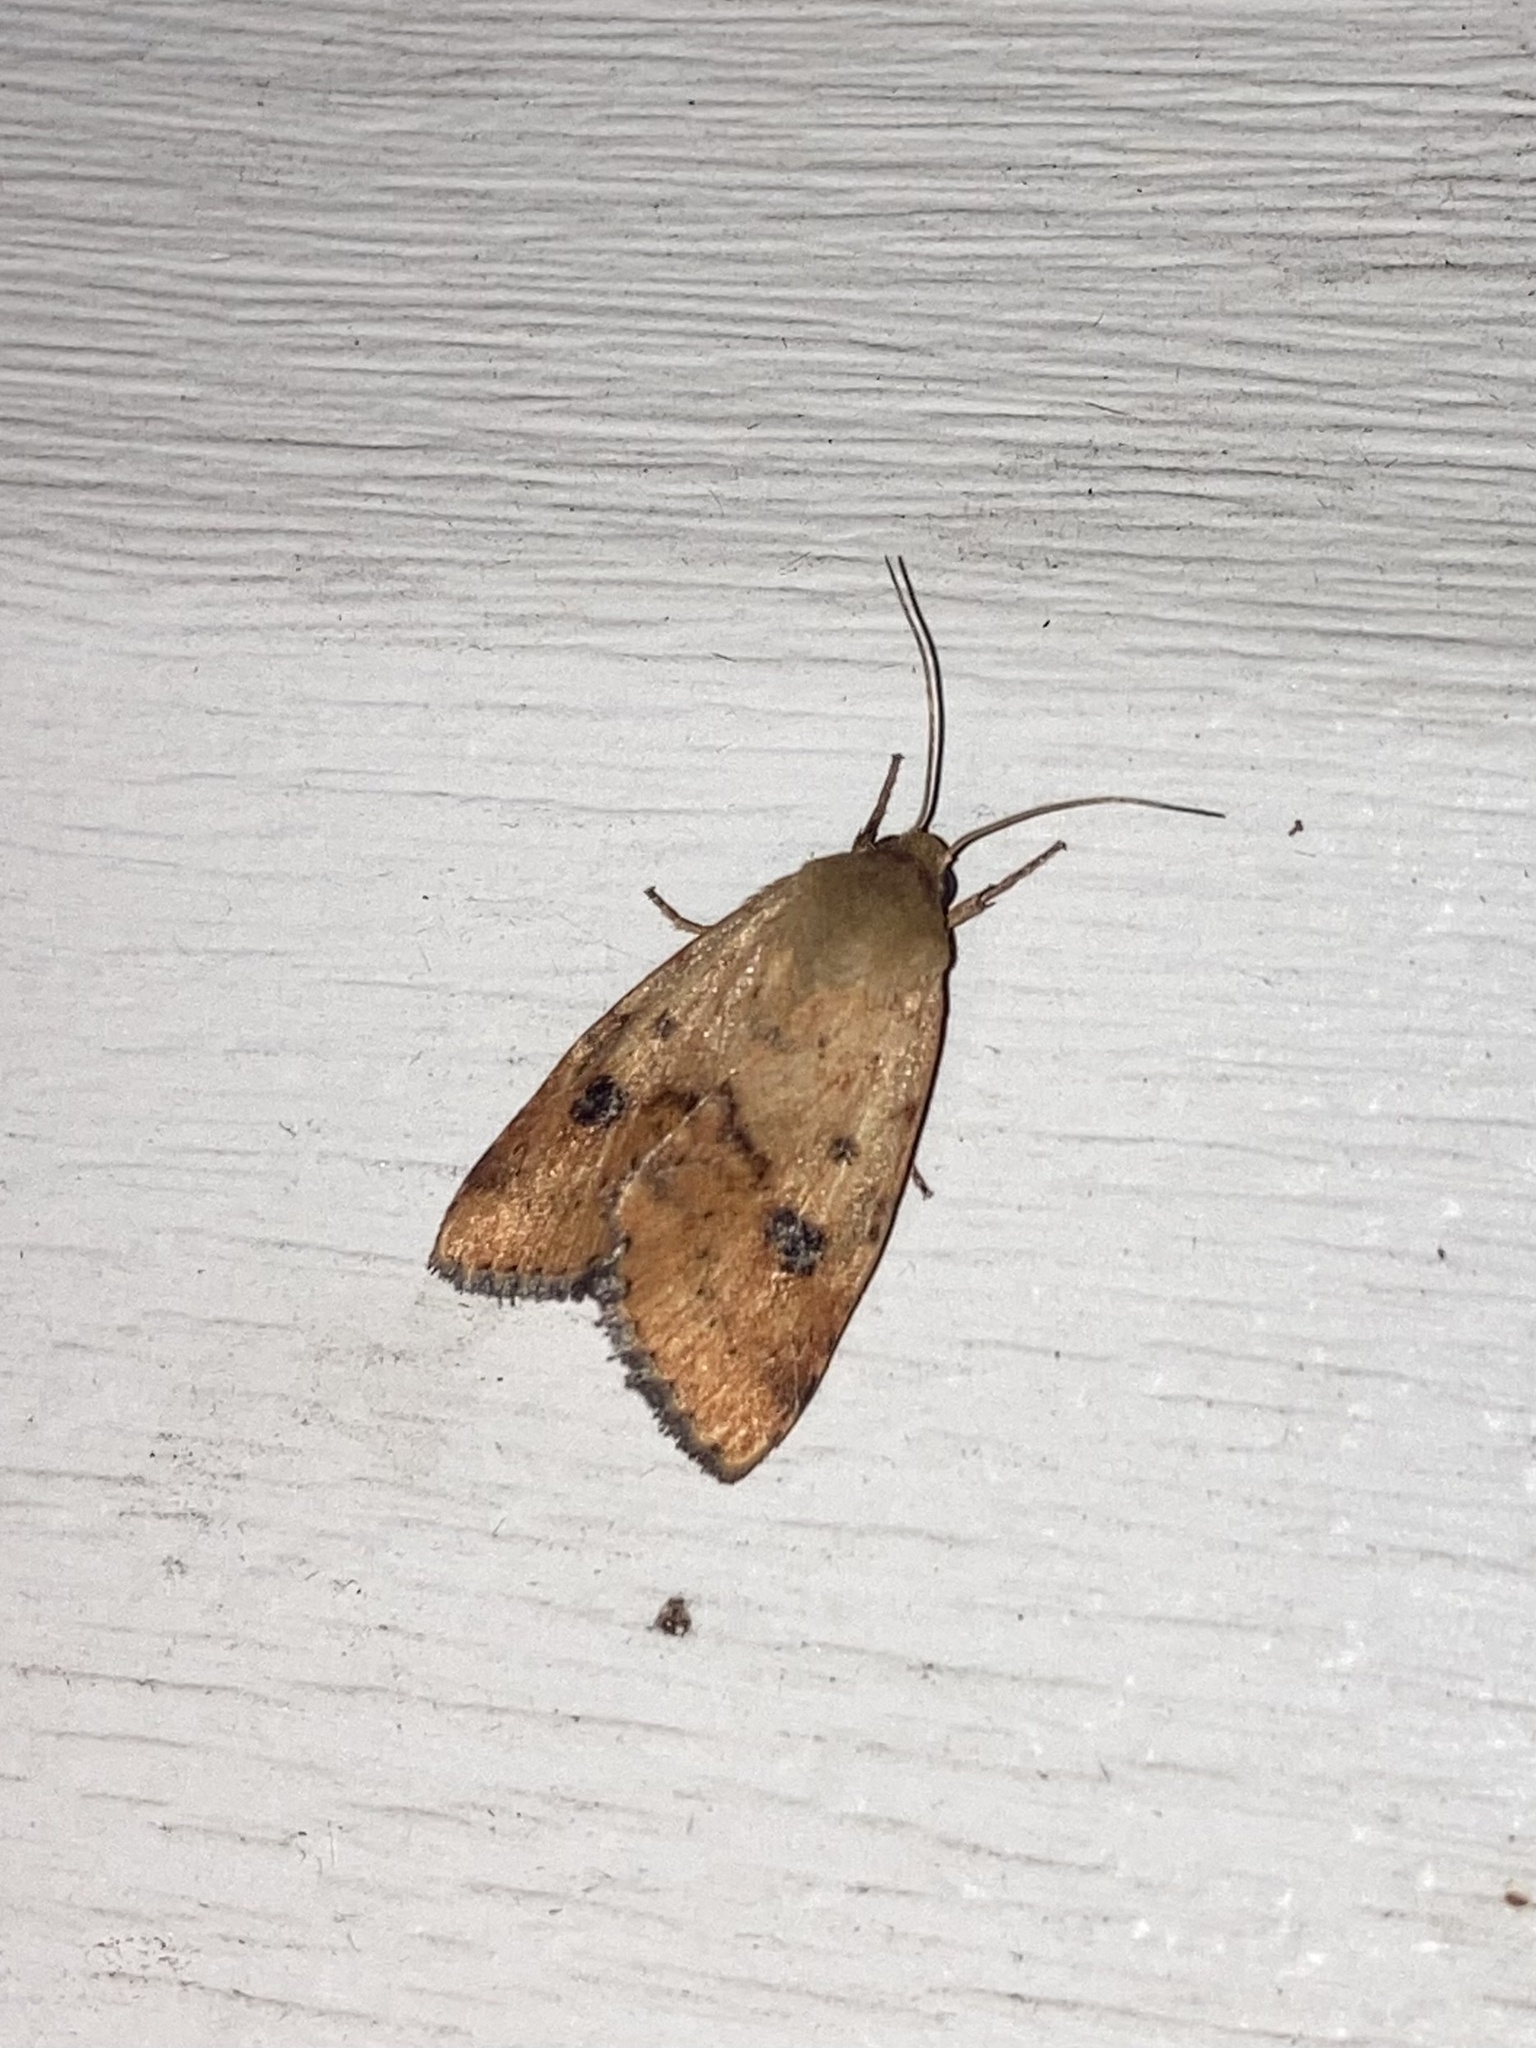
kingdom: Animalia
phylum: Arthropoda
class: Insecta
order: Lepidoptera
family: Noctuidae
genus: Choephora
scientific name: Choephora fungorum
